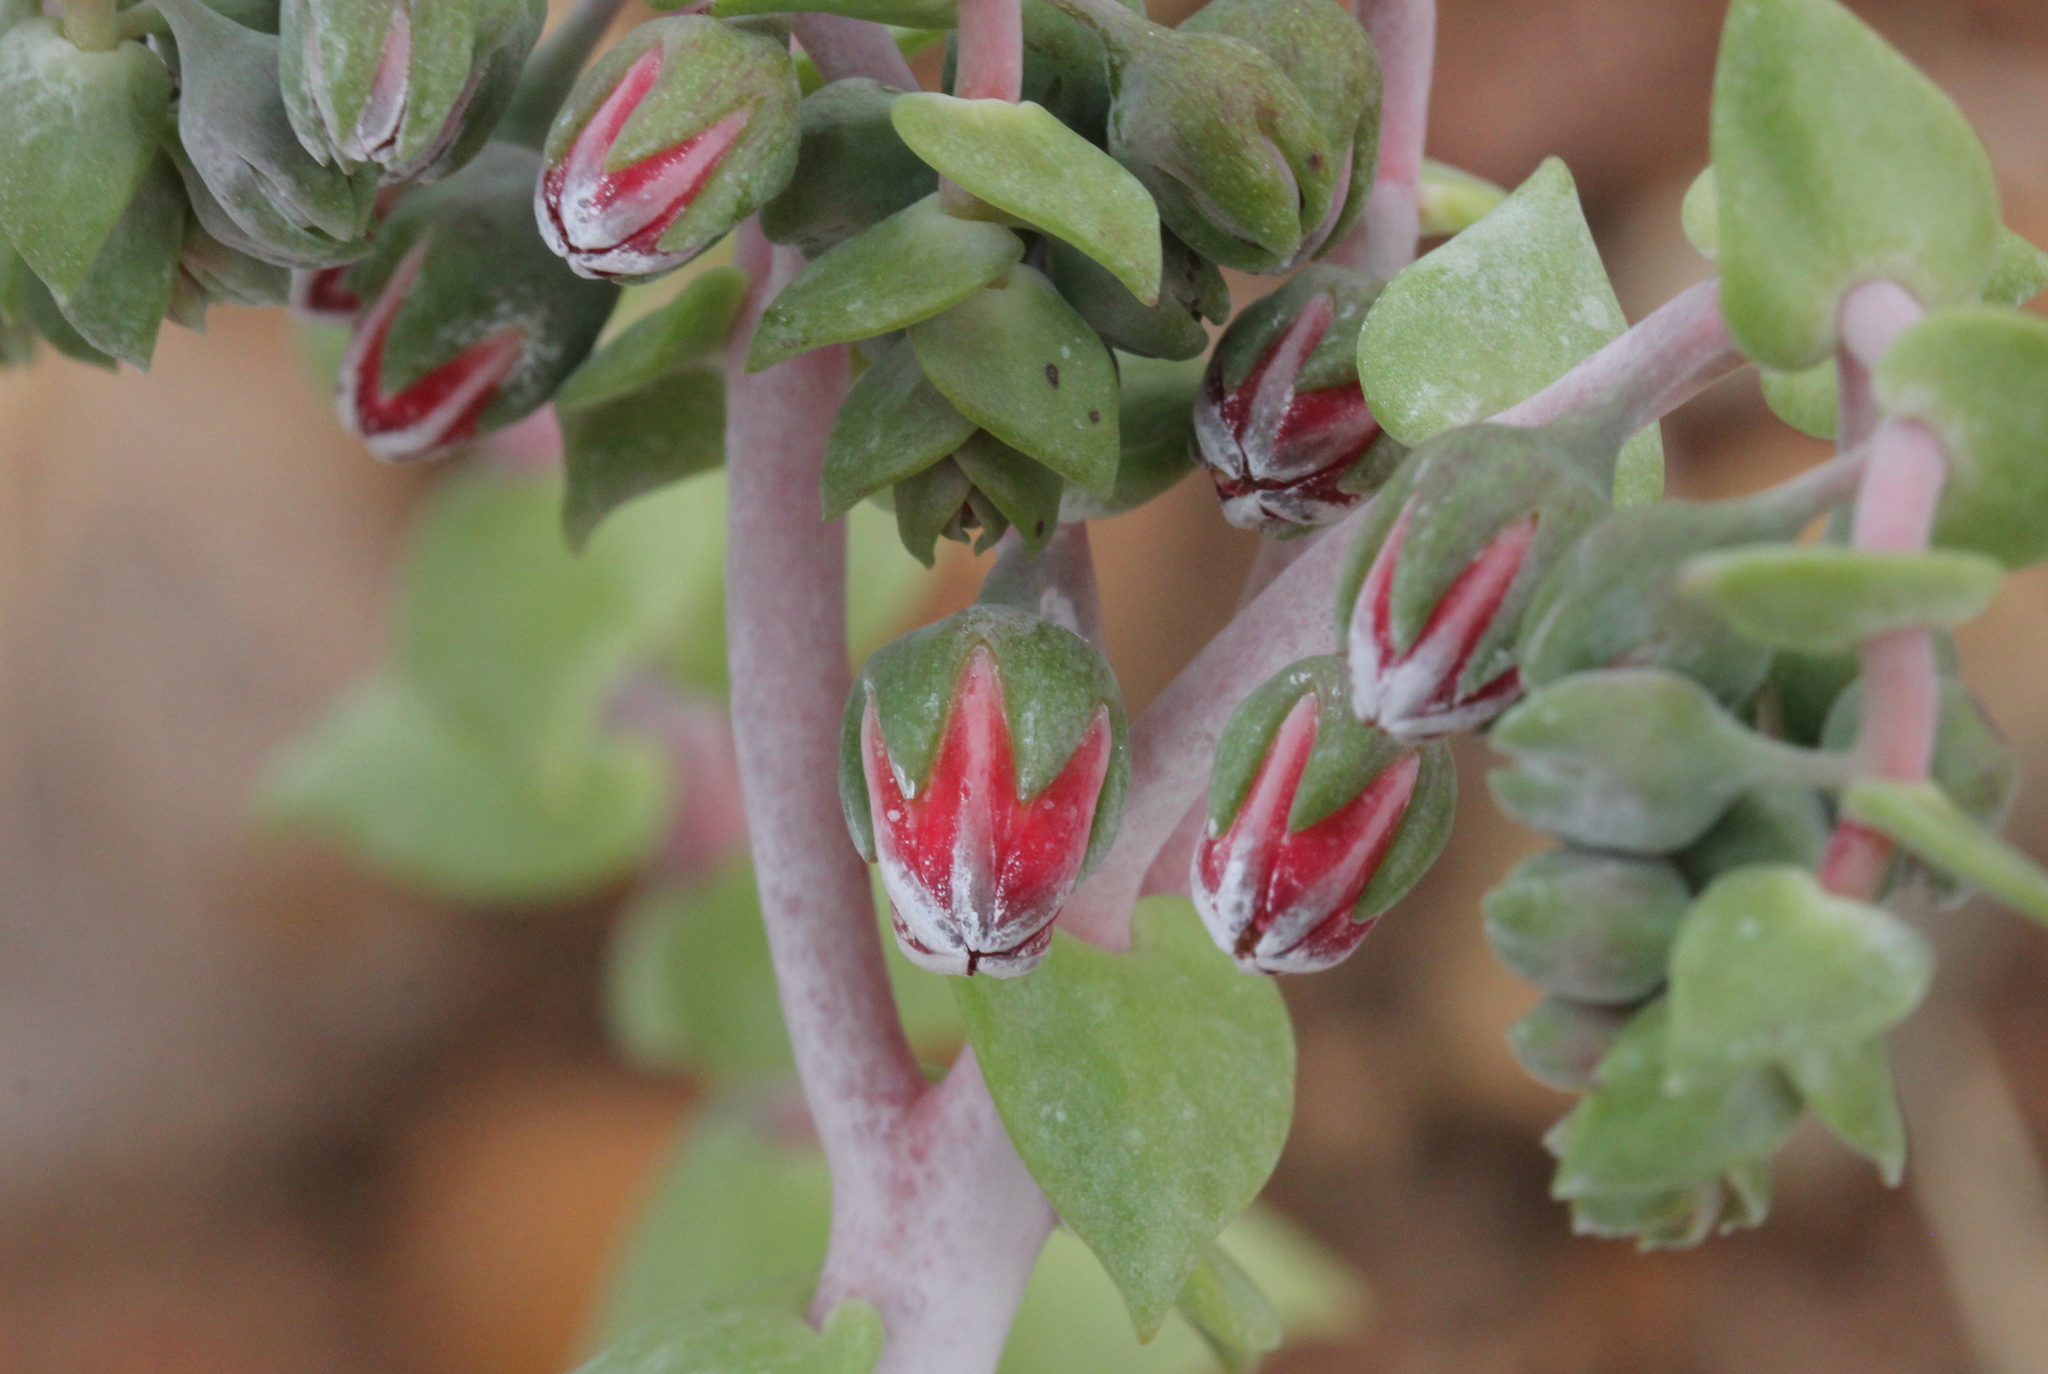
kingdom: Plantae
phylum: Tracheophyta
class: Magnoliopsida
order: Saxifragales
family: Crassulaceae
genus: Dudleya
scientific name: Dudleya pulverulenta
